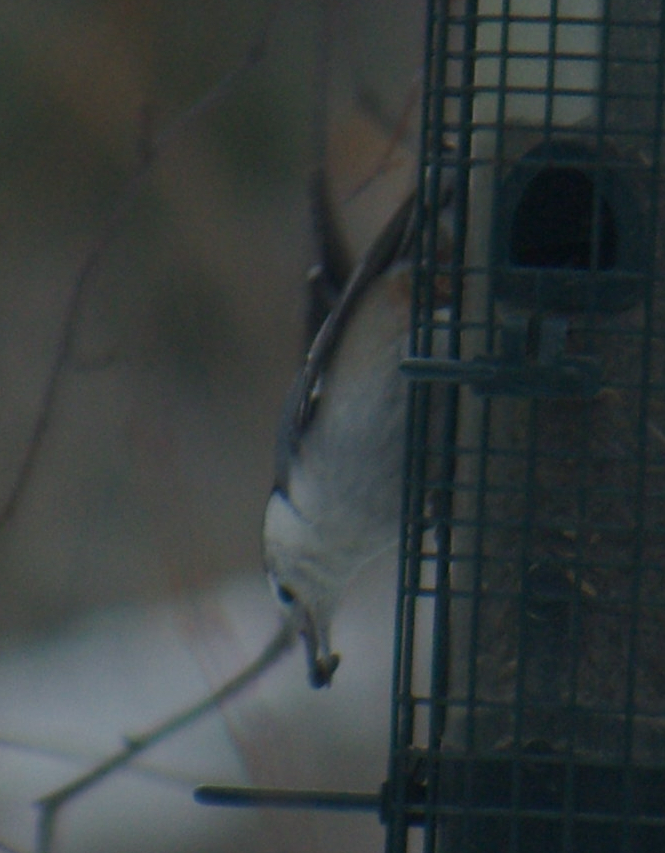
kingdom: Animalia
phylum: Chordata
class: Aves
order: Passeriformes
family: Sittidae
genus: Sitta
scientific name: Sitta carolinensis
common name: White-breasted nuthatch
